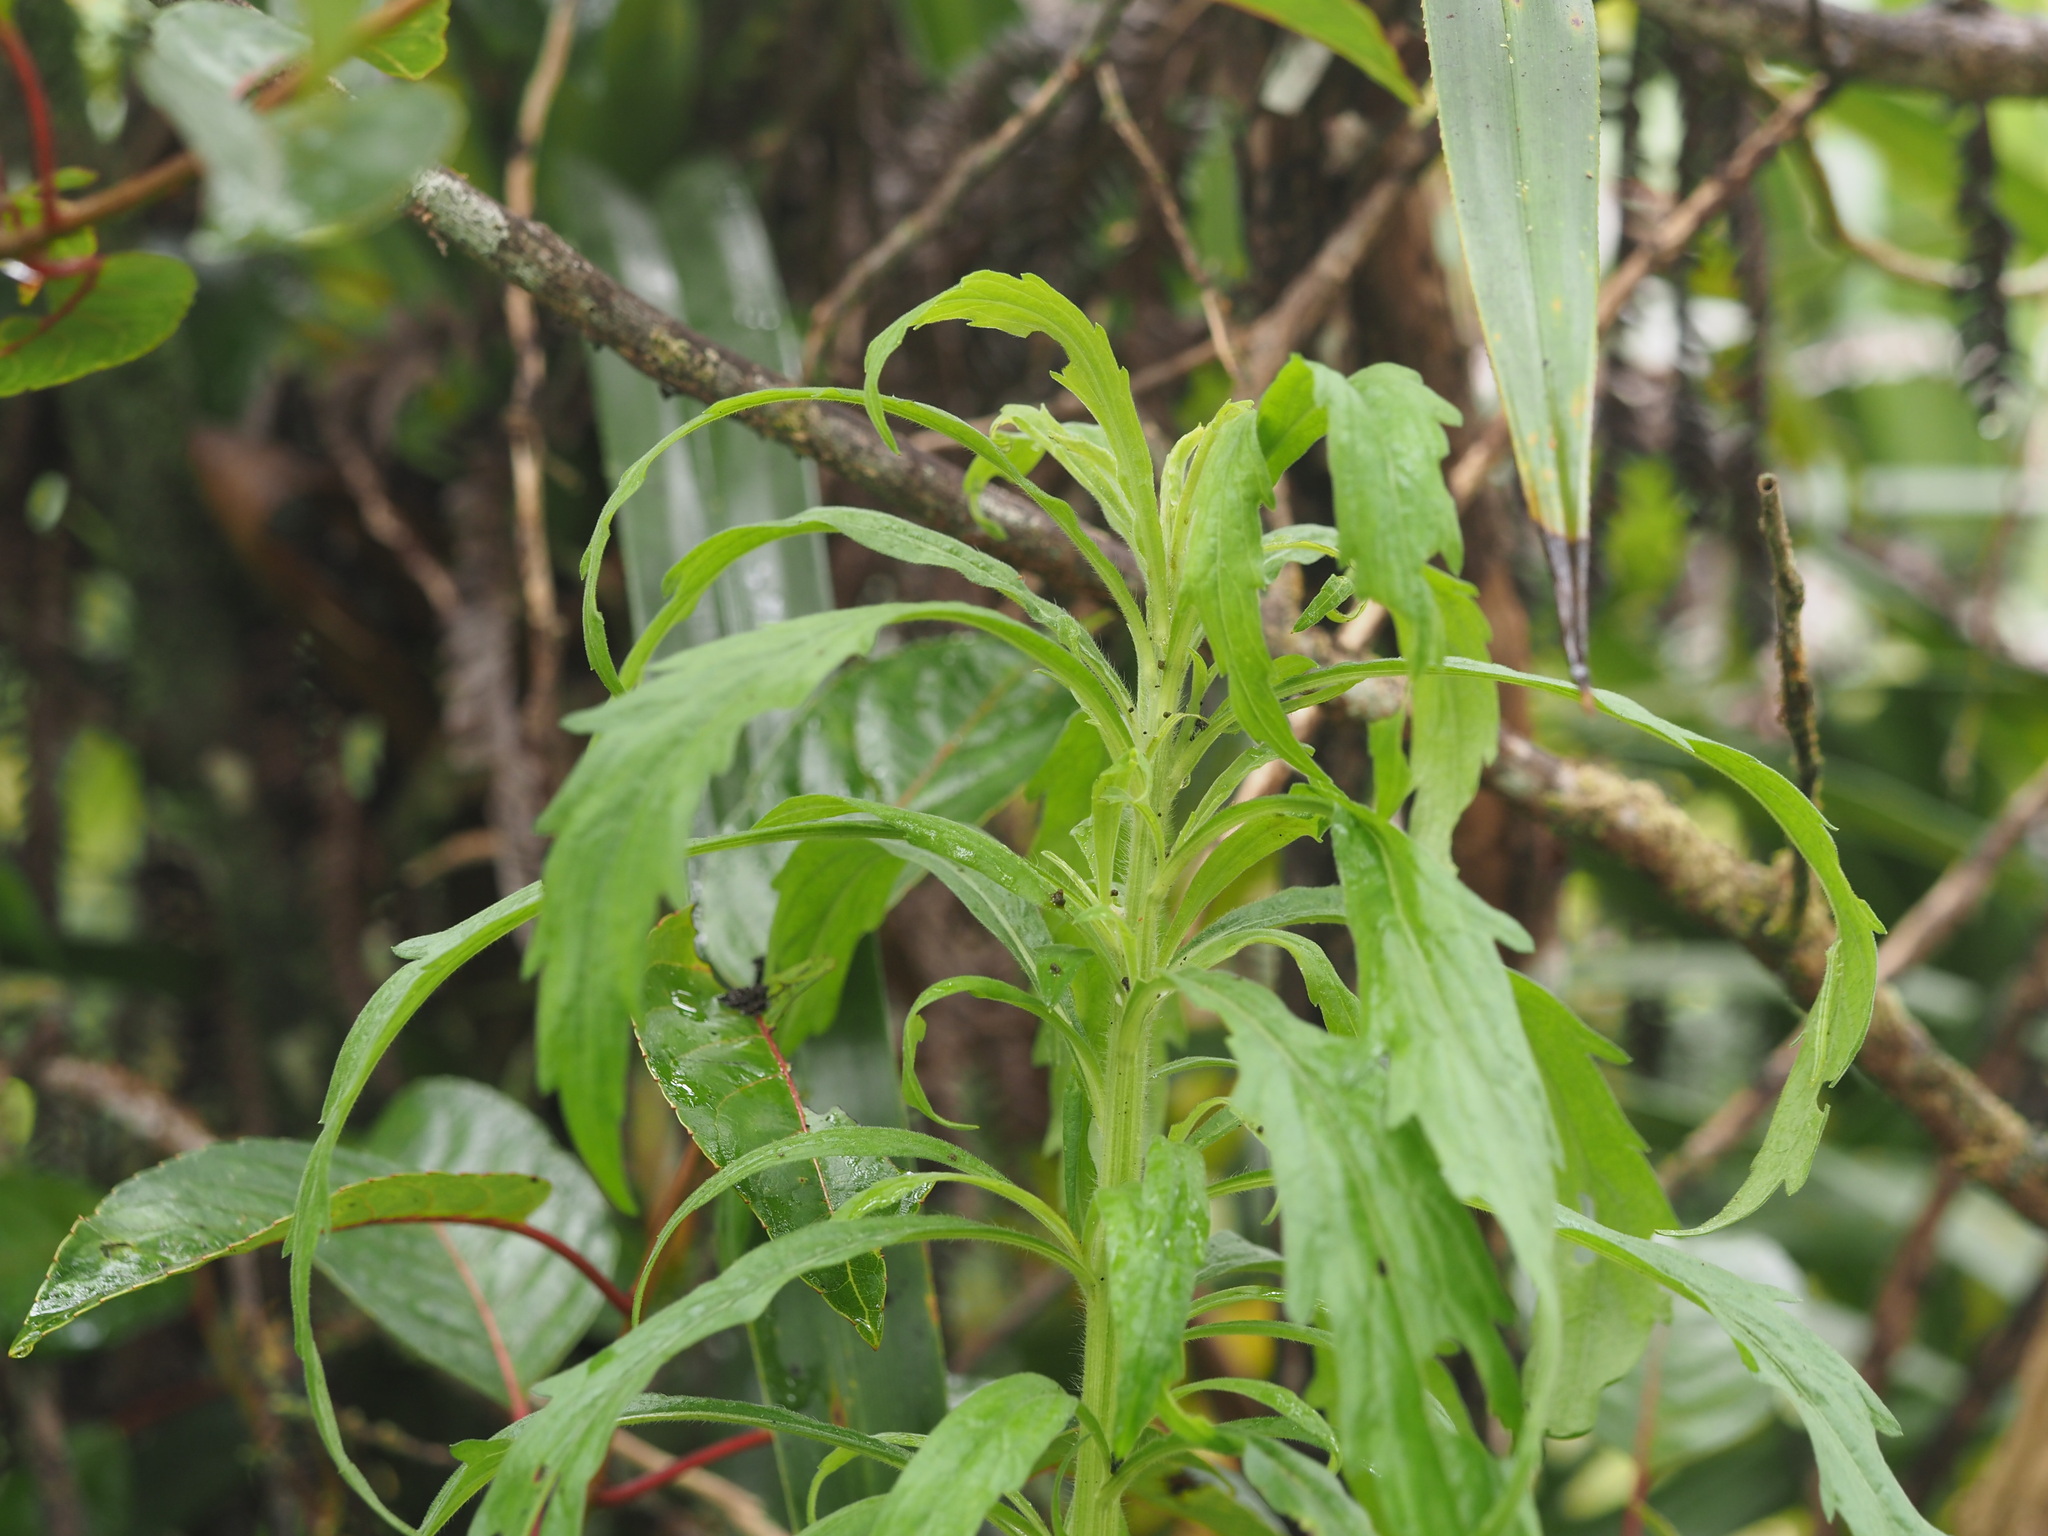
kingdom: Plantae
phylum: Tracheophyta
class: Magnoliopsida
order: Asterales
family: Asteraceae
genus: Erigeron
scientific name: Erigeron sumatrensis
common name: Daisy
